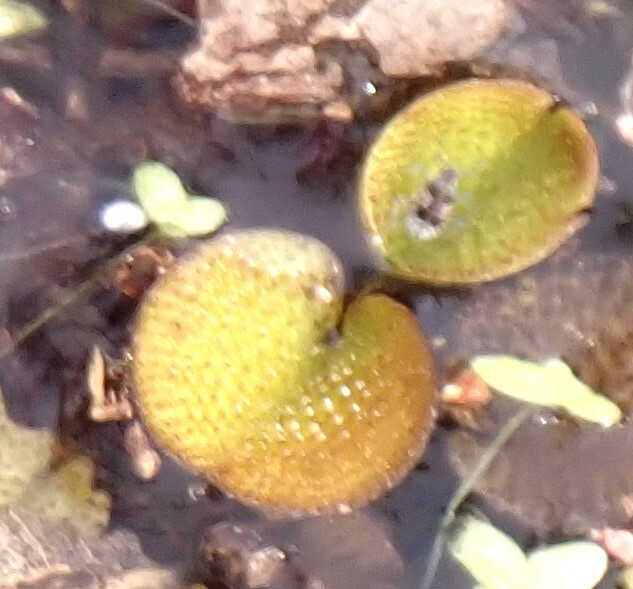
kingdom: Plantae
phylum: Tracheophyta
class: Polypodiopsida
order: Salviniales
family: Salviniaceae
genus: Salvinia
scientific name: Salvinia minima
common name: Water spangles
